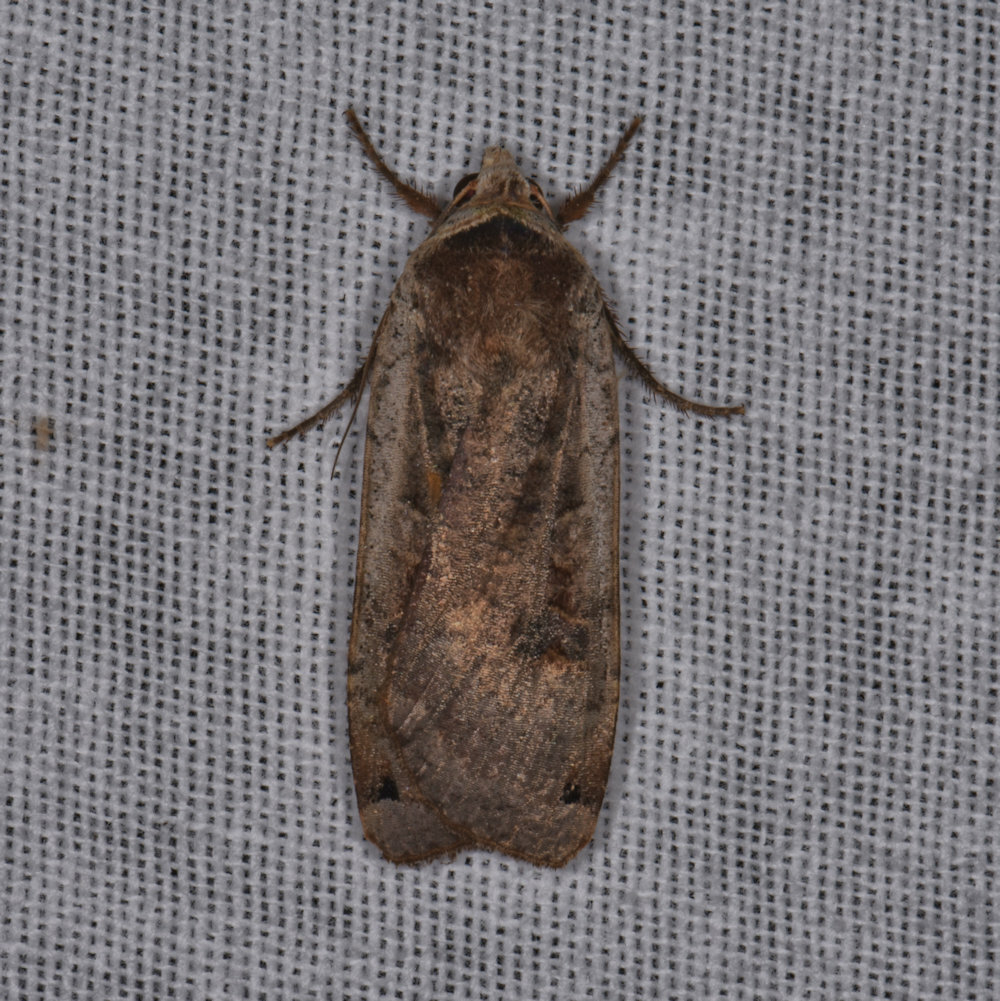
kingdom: Animalia
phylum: Arthropoda
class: Insecta
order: Lepidoptera
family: Noctuidae
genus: Noctua
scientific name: Noctua pronuba
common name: Large yellow underwing
